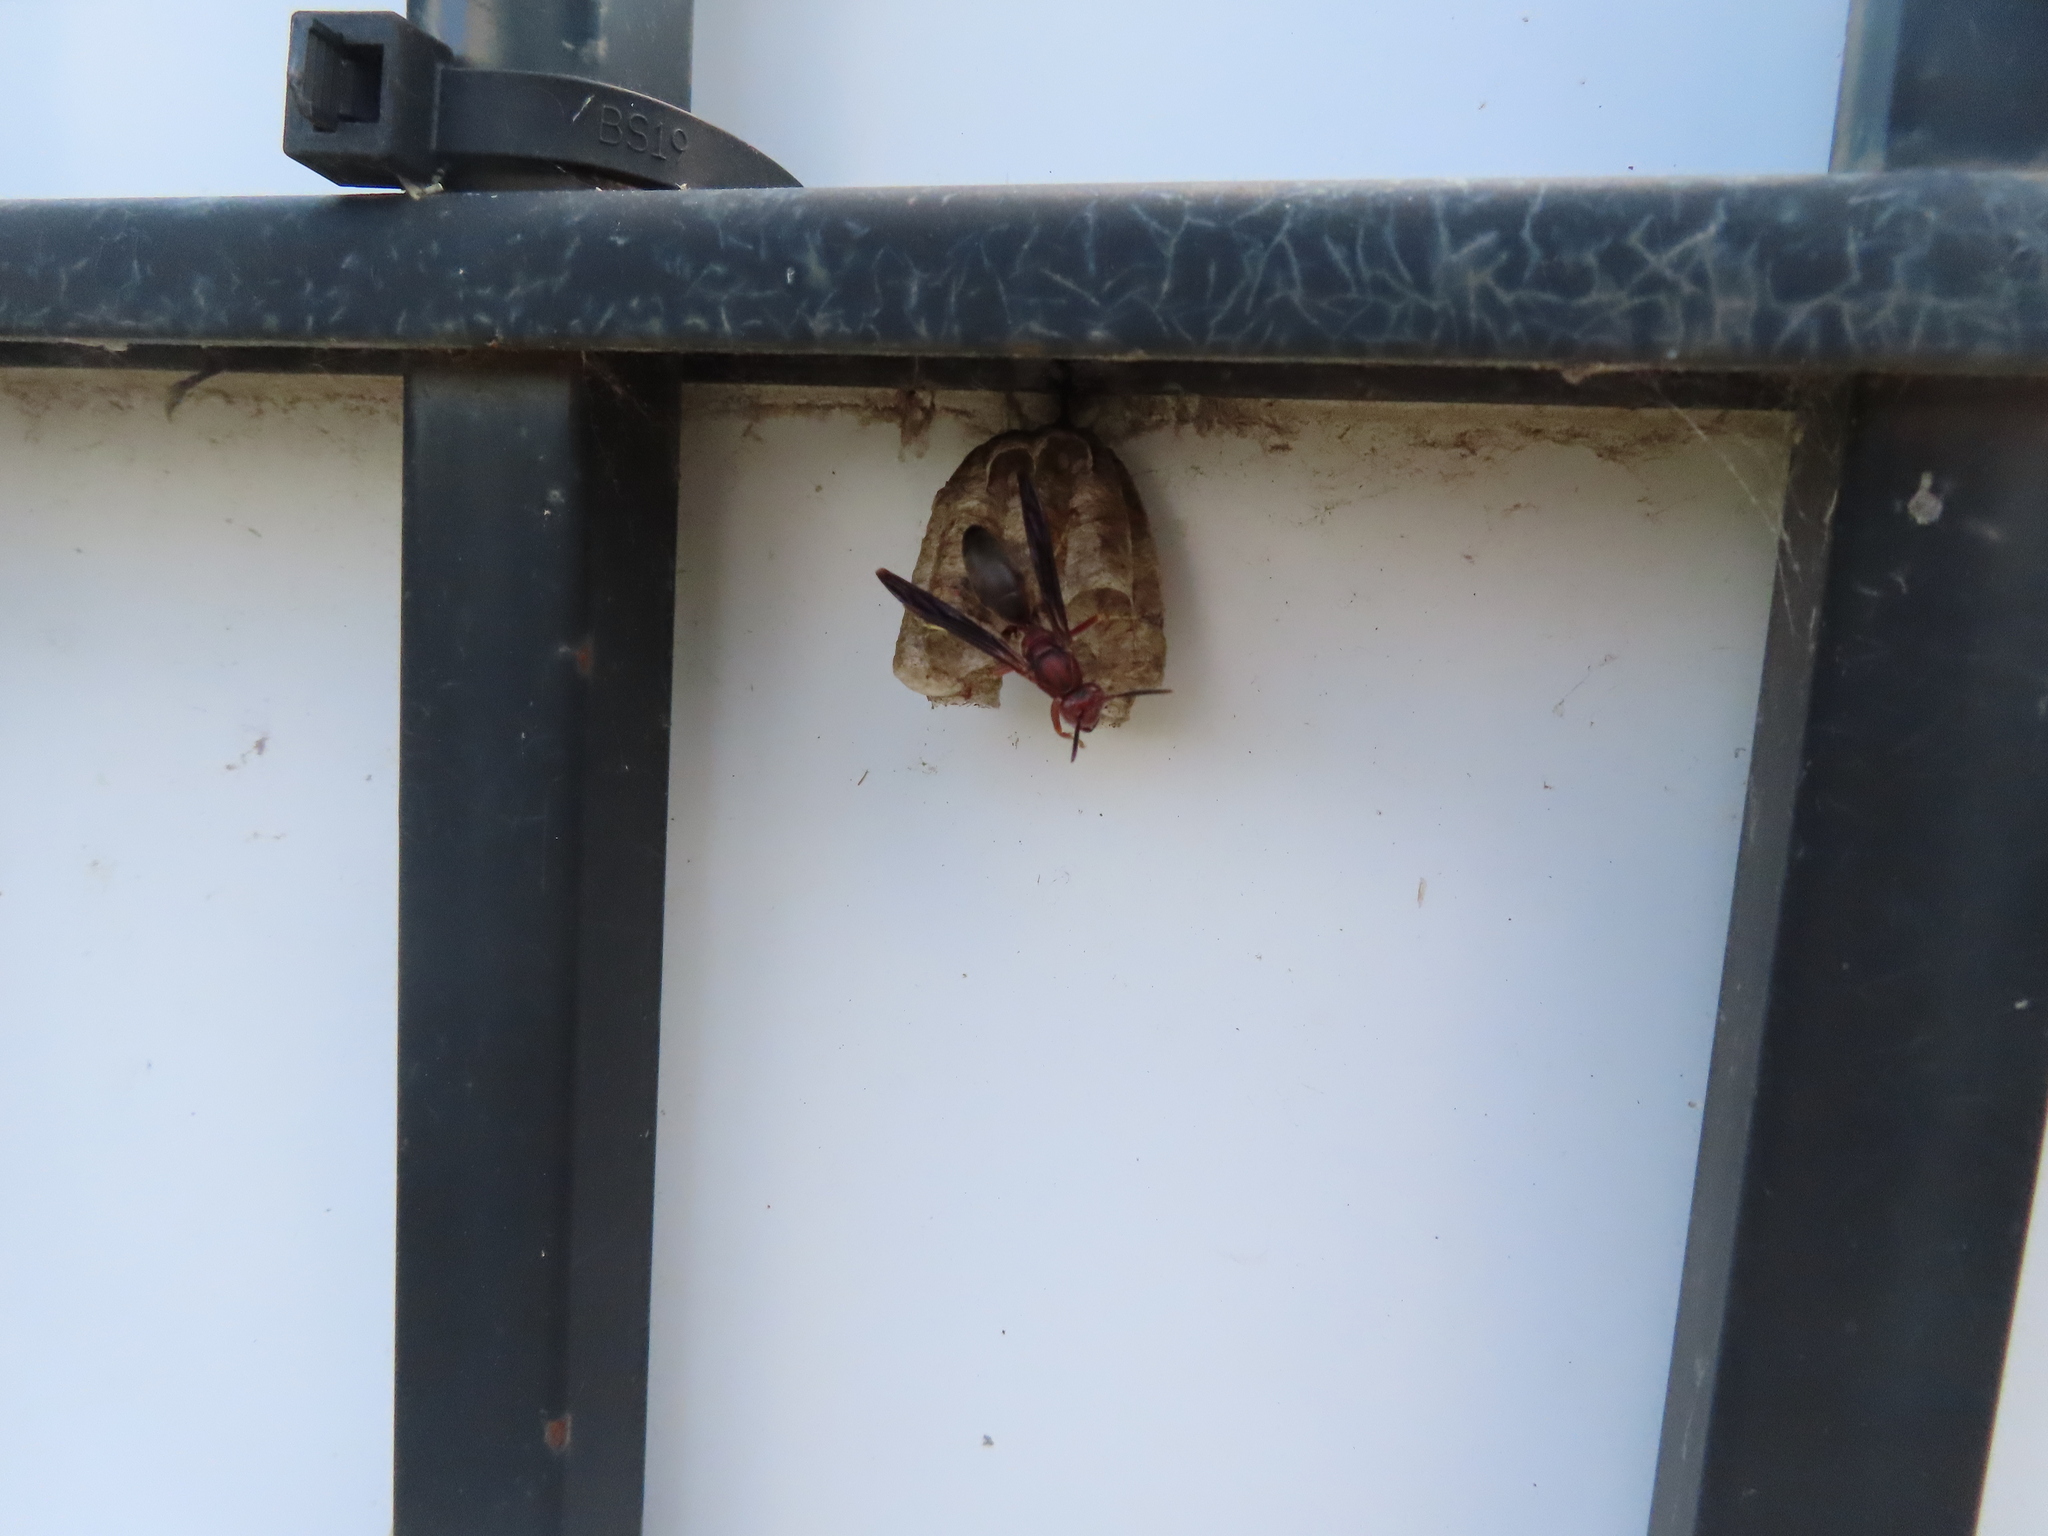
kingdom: Animalia
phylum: Arthropoda
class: Insecta
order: Hymenoptera
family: Eumenidae
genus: Polistes
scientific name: Polistes metricus
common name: Metric paper wasp
